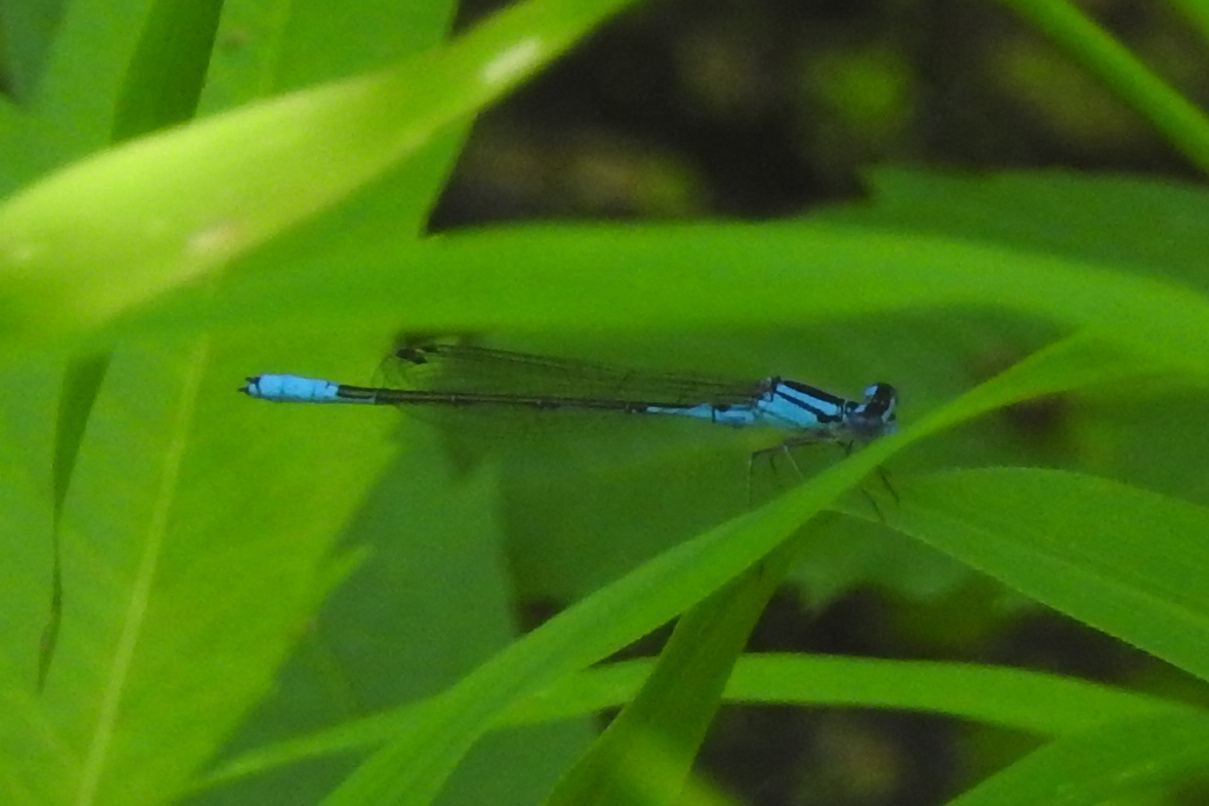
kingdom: Animalia
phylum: Arthropoda
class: Insecta
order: Odonata
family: Coenagrionidae
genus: Enallagma
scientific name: Enallagma aspersum
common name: Azure bluet
